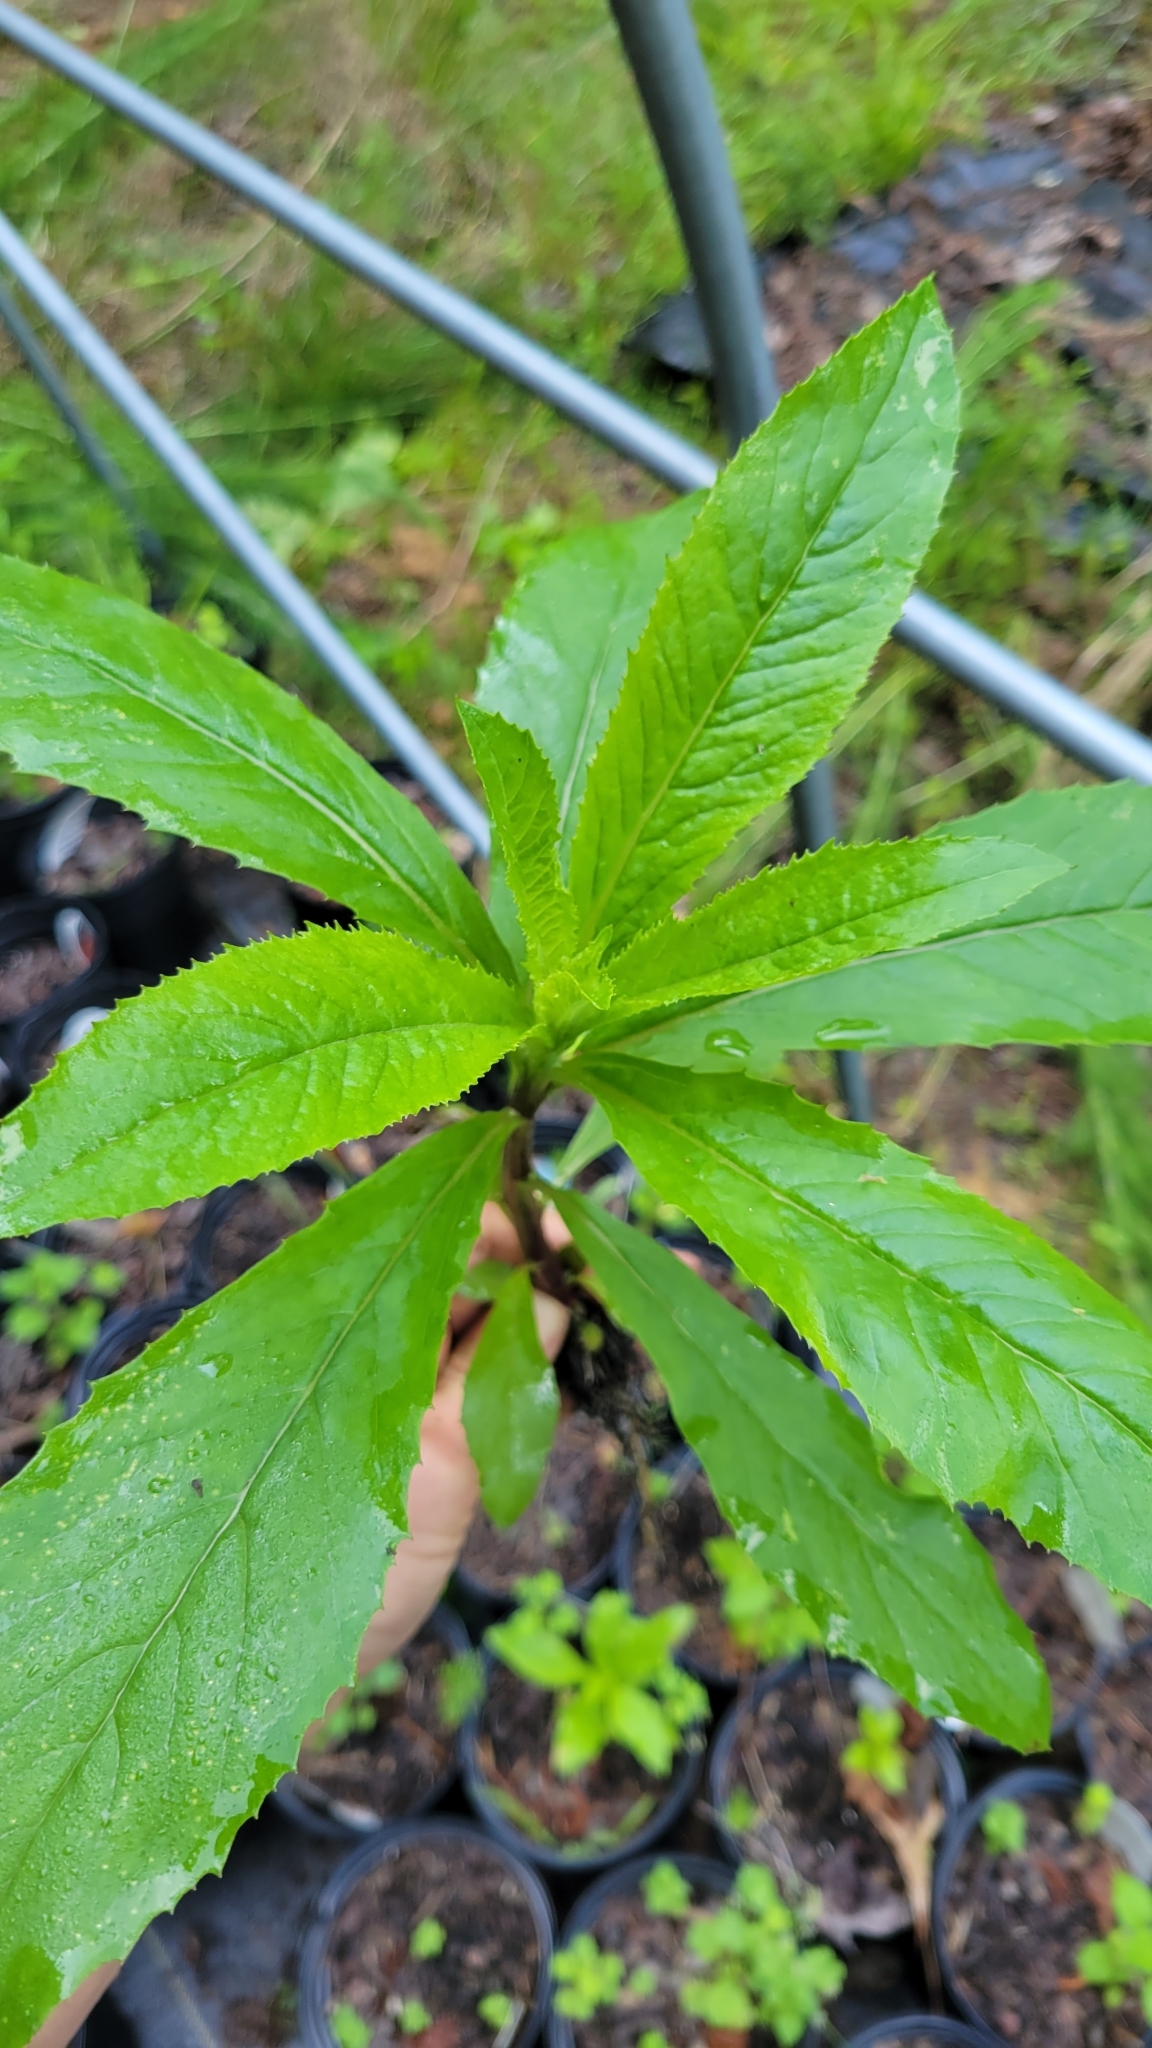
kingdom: Plantae
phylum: Tracheophyta
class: Magnoliopsida
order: Asterales
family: Asteraceae
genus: Erechtites
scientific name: Erechtites hieraciifolius
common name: American burnweed
